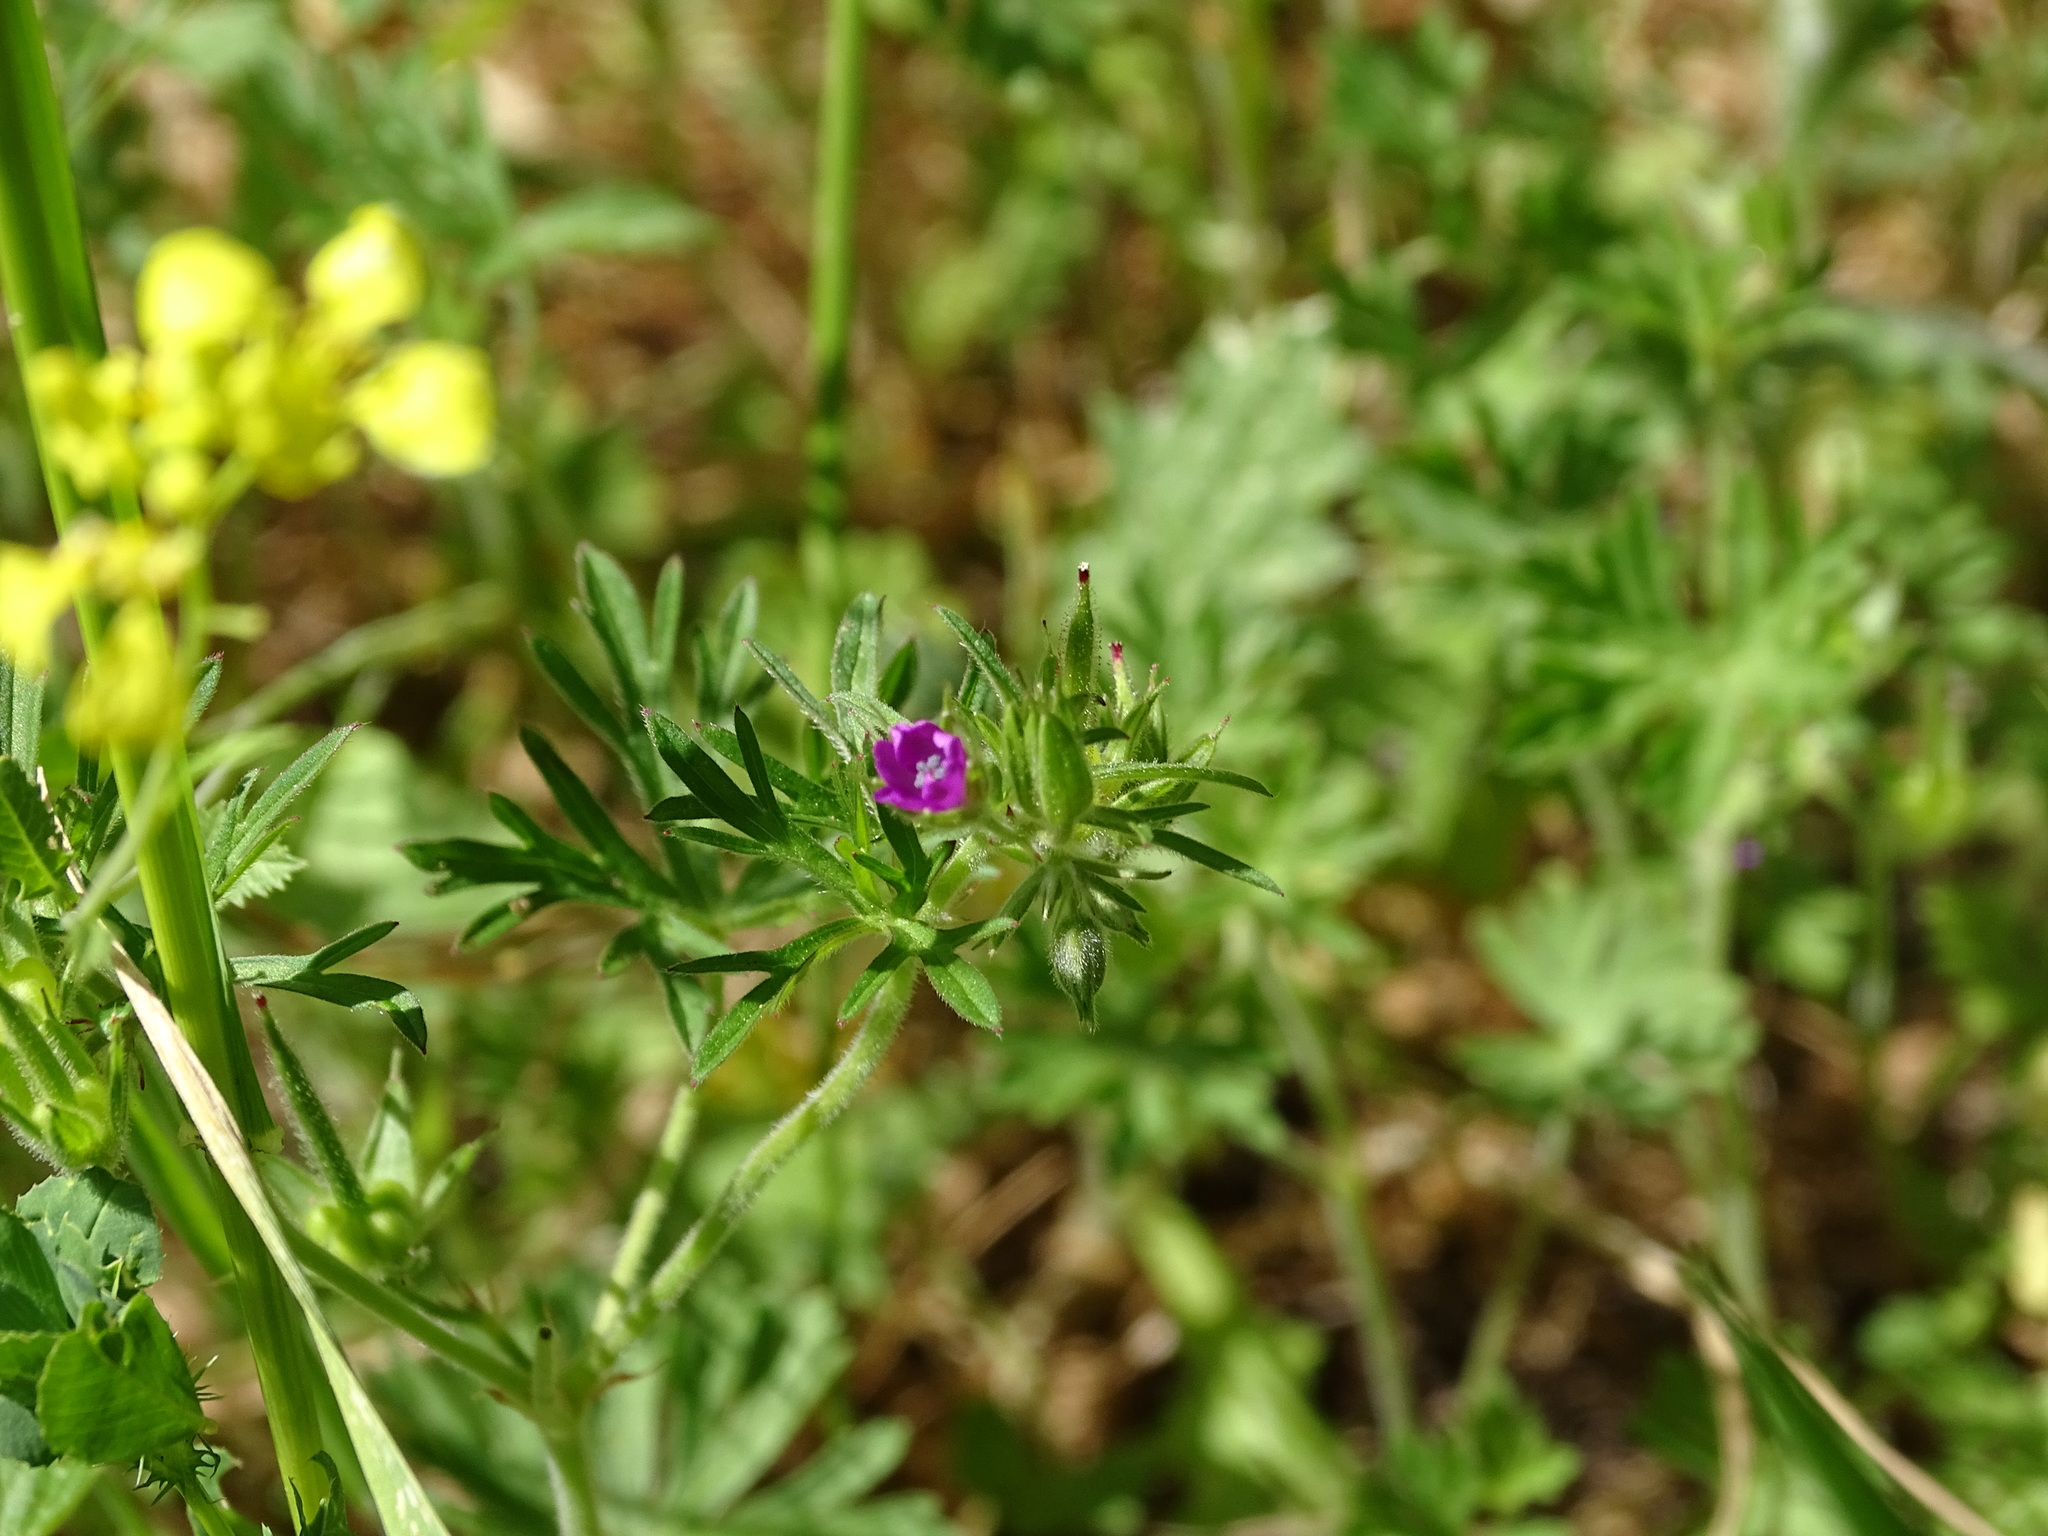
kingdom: Plantae
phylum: Tracheophyta
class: Magnoliopsida
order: Geraniales
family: Geraniaceae
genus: Geranium
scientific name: Geranium dissectum
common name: Cut-leaved crane's-bill
